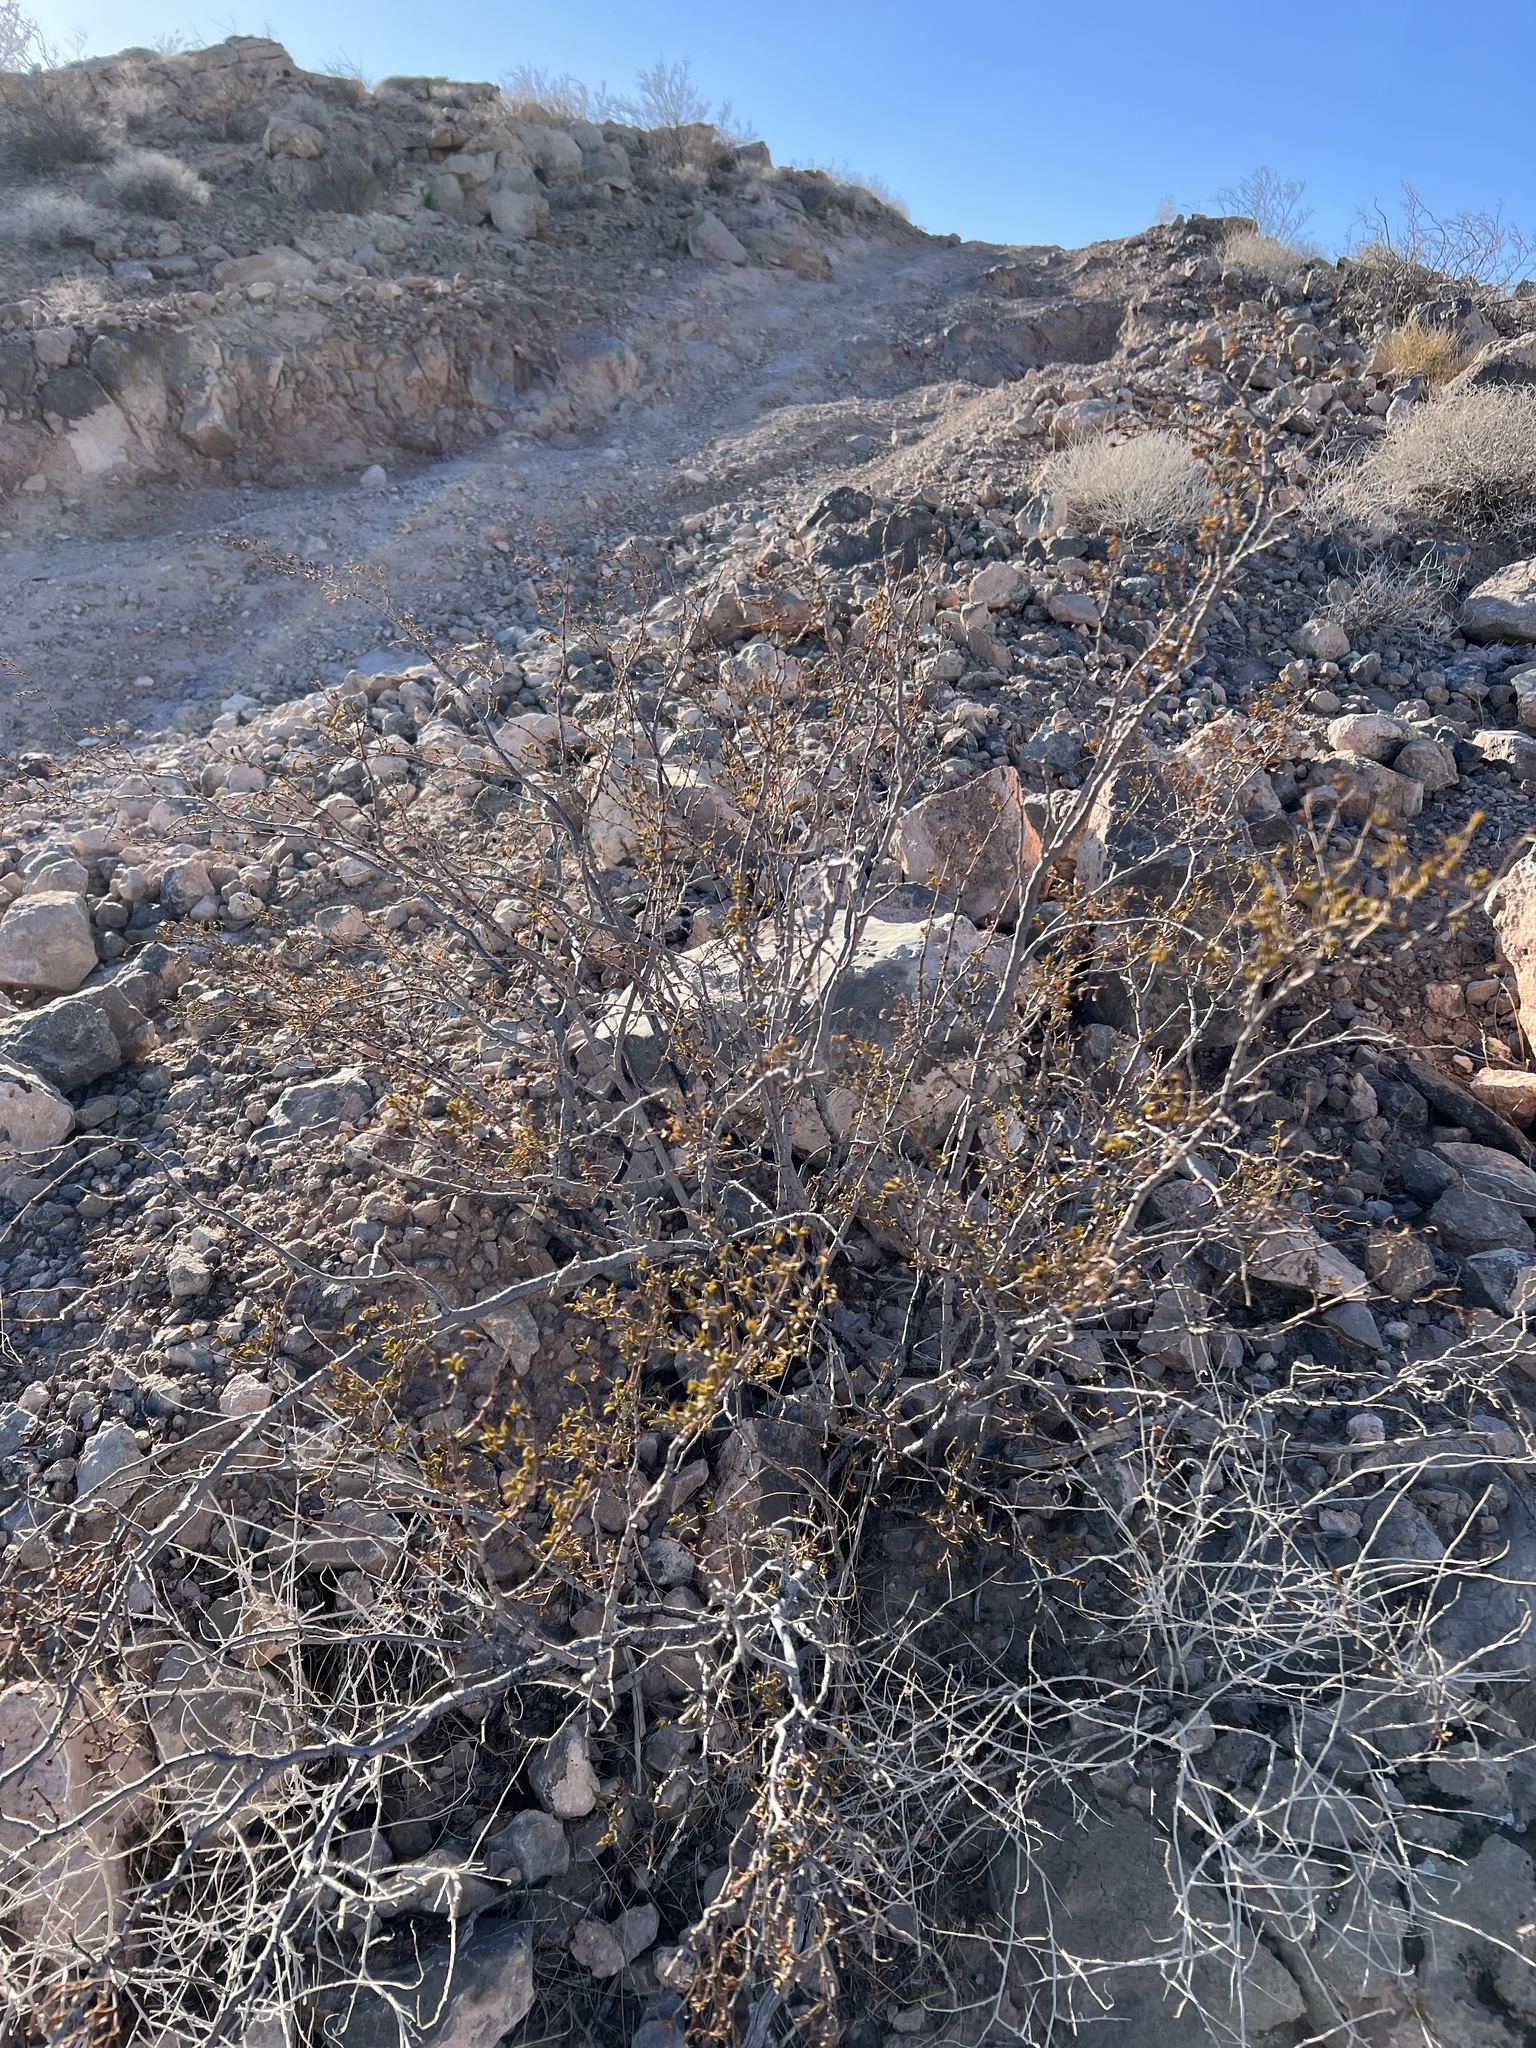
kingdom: Plantae
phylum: Tracheophyta
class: Magnoliopsida
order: Zygophyllales
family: Zygophyllaceae
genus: Larrea
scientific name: Larrea tridentata
